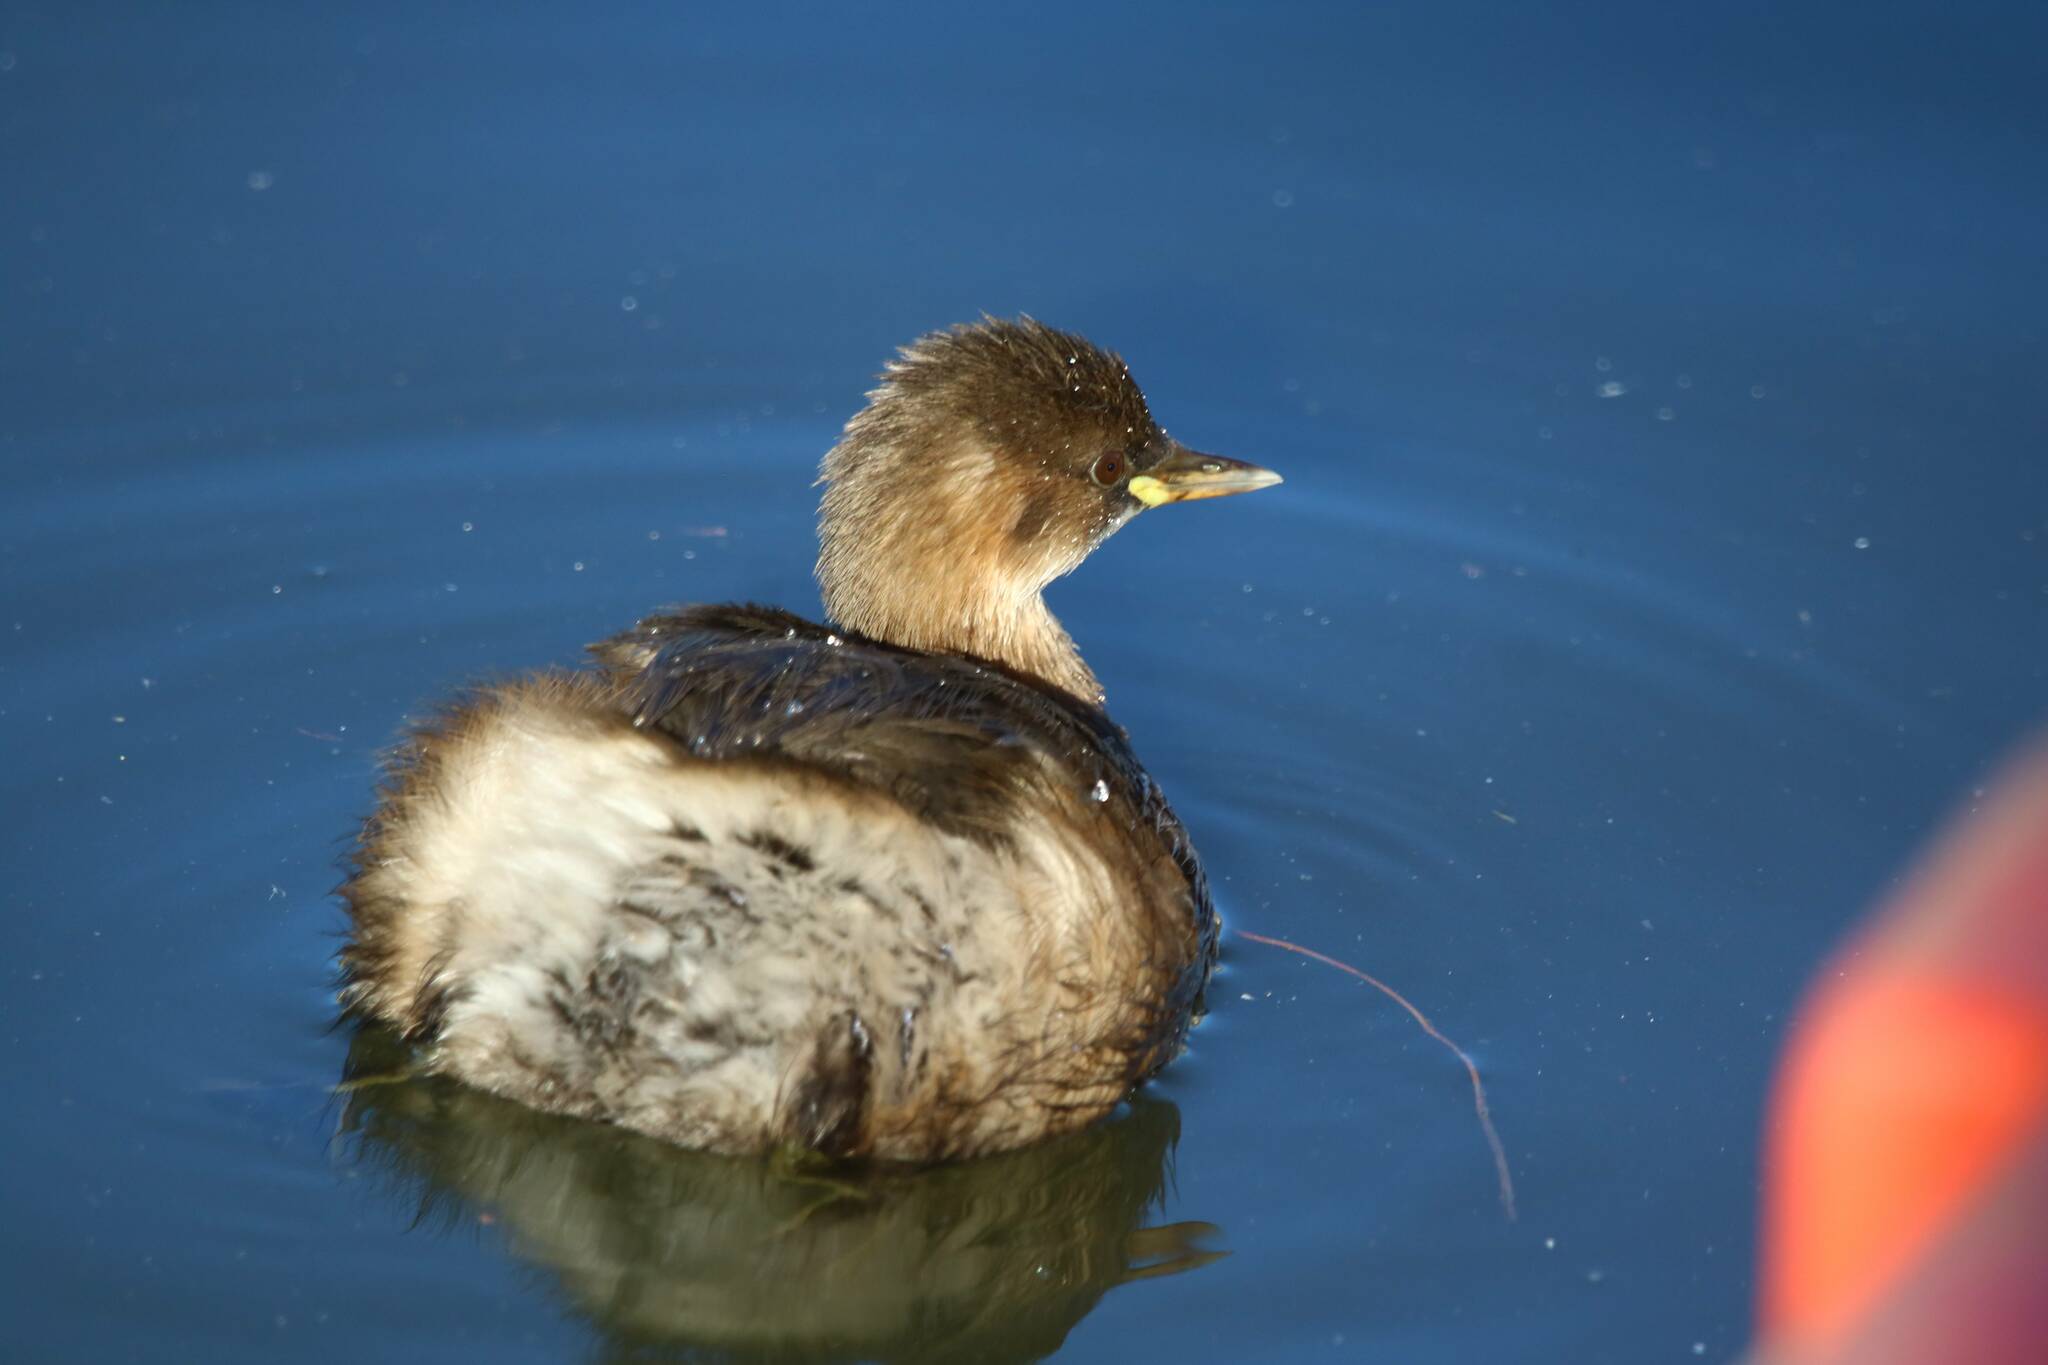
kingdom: Animalia
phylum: Chordata
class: Aves
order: Podicipediformes
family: Podicipedidae
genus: Tachybaptus
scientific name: Tachybaptus ruficollis
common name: Little grebe
